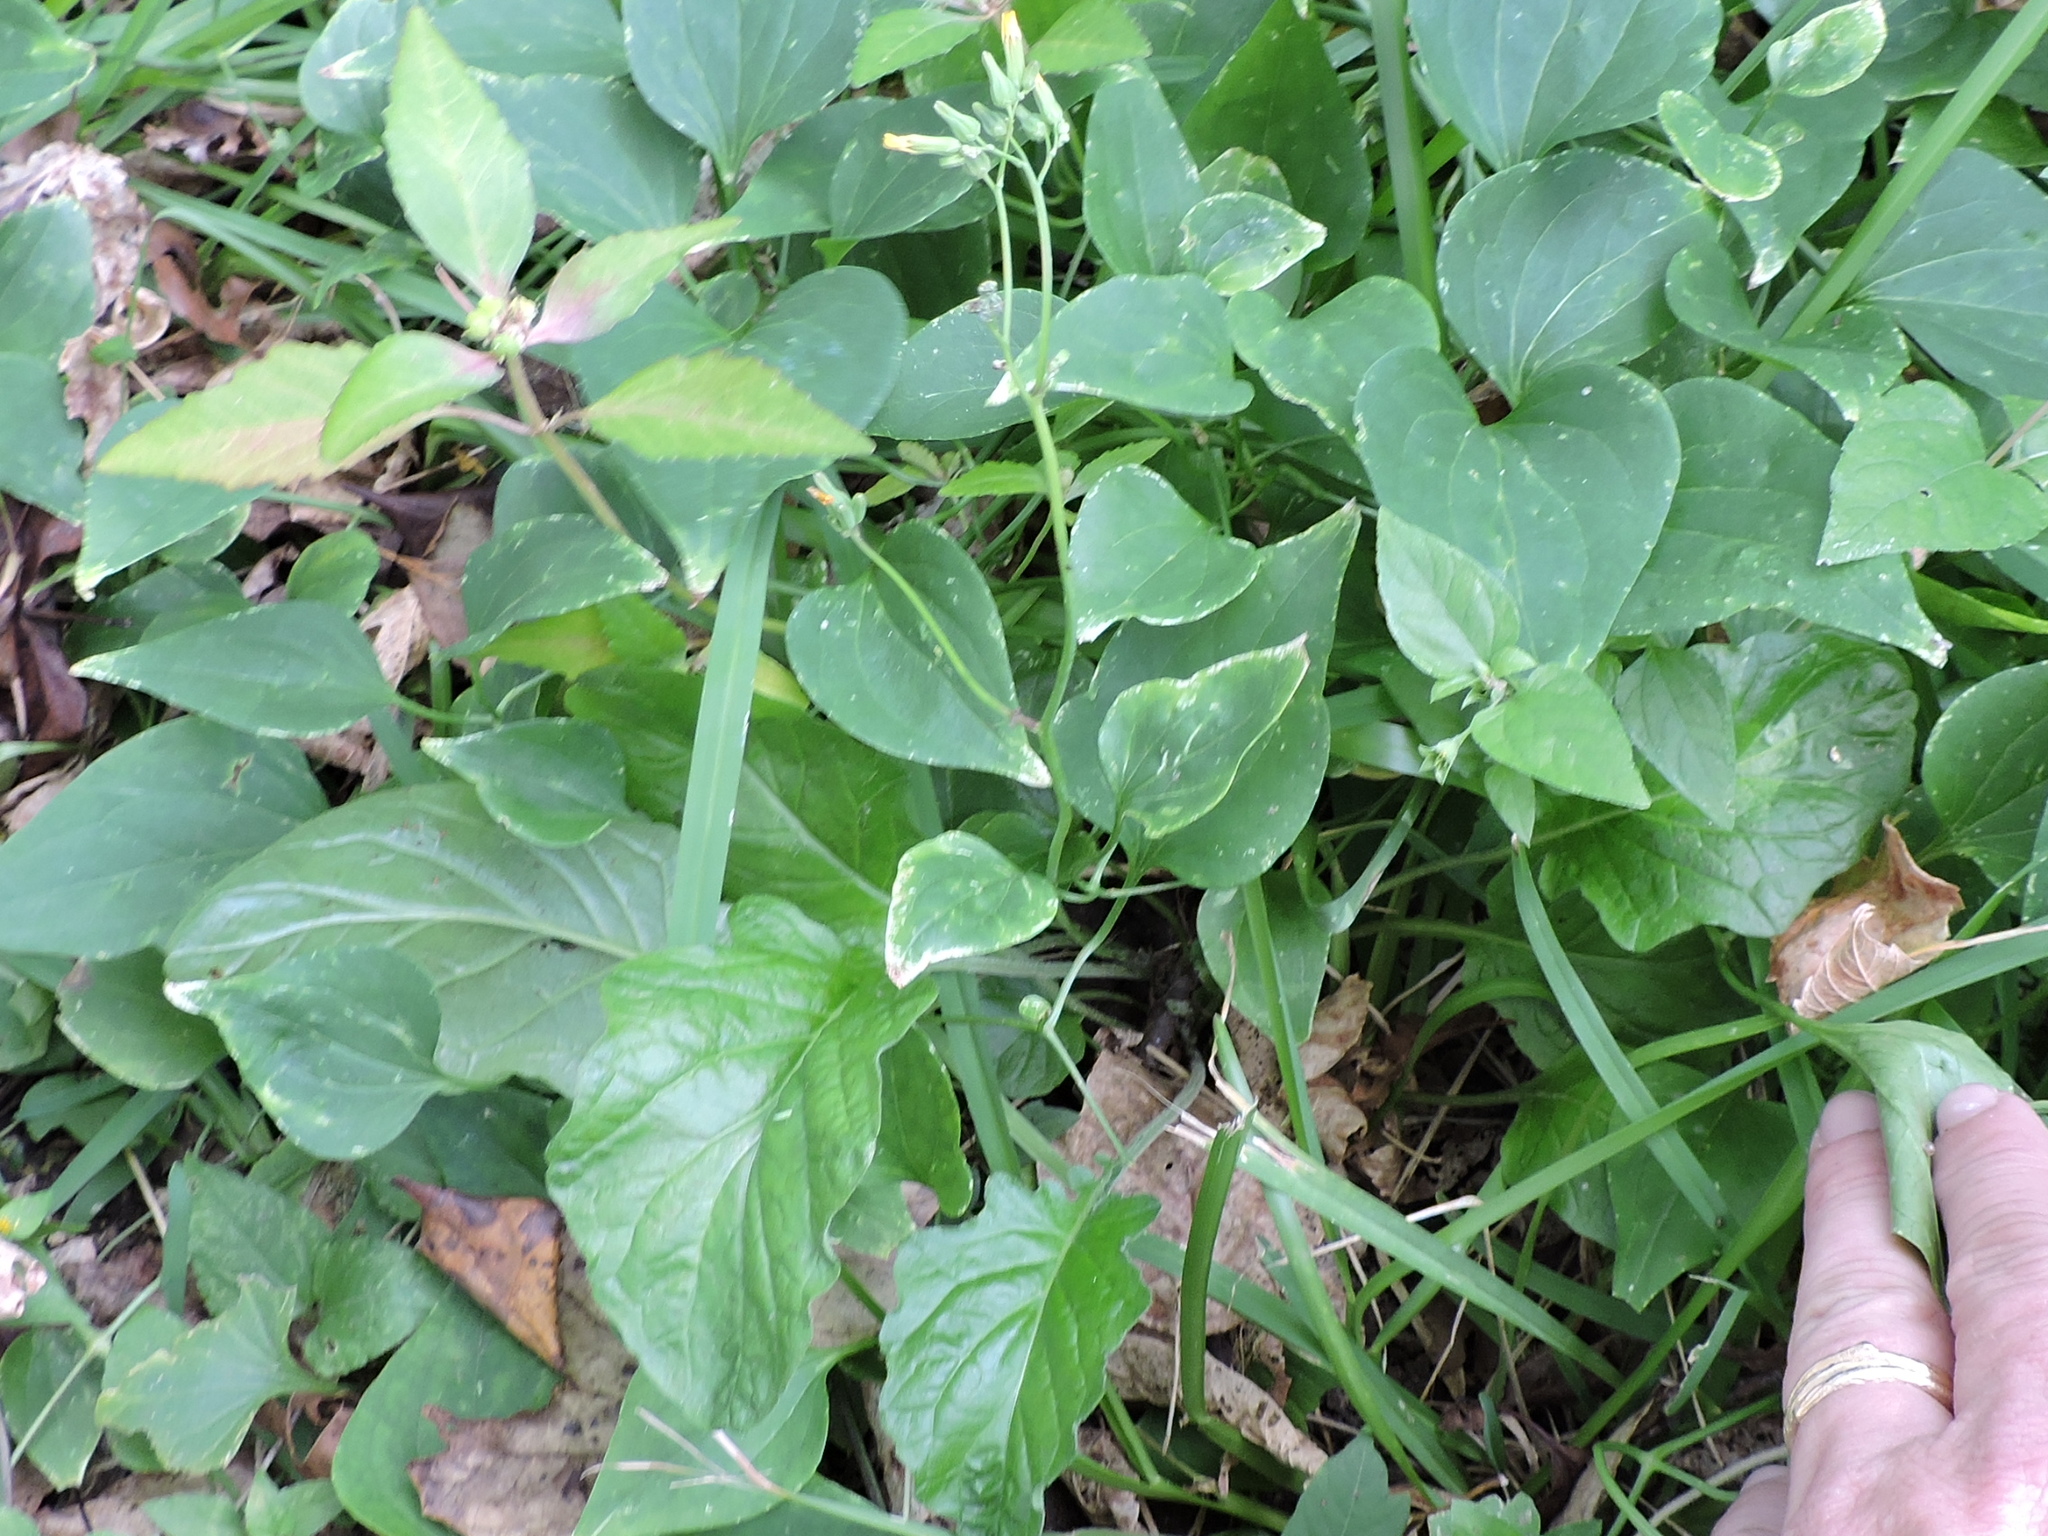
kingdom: Plantae
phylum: Tracheophyta
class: Magnoliopsida
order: Asterales
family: Asteraceae
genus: Youngia
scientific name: Youngia japonica
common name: Oriental false hawksbeard
